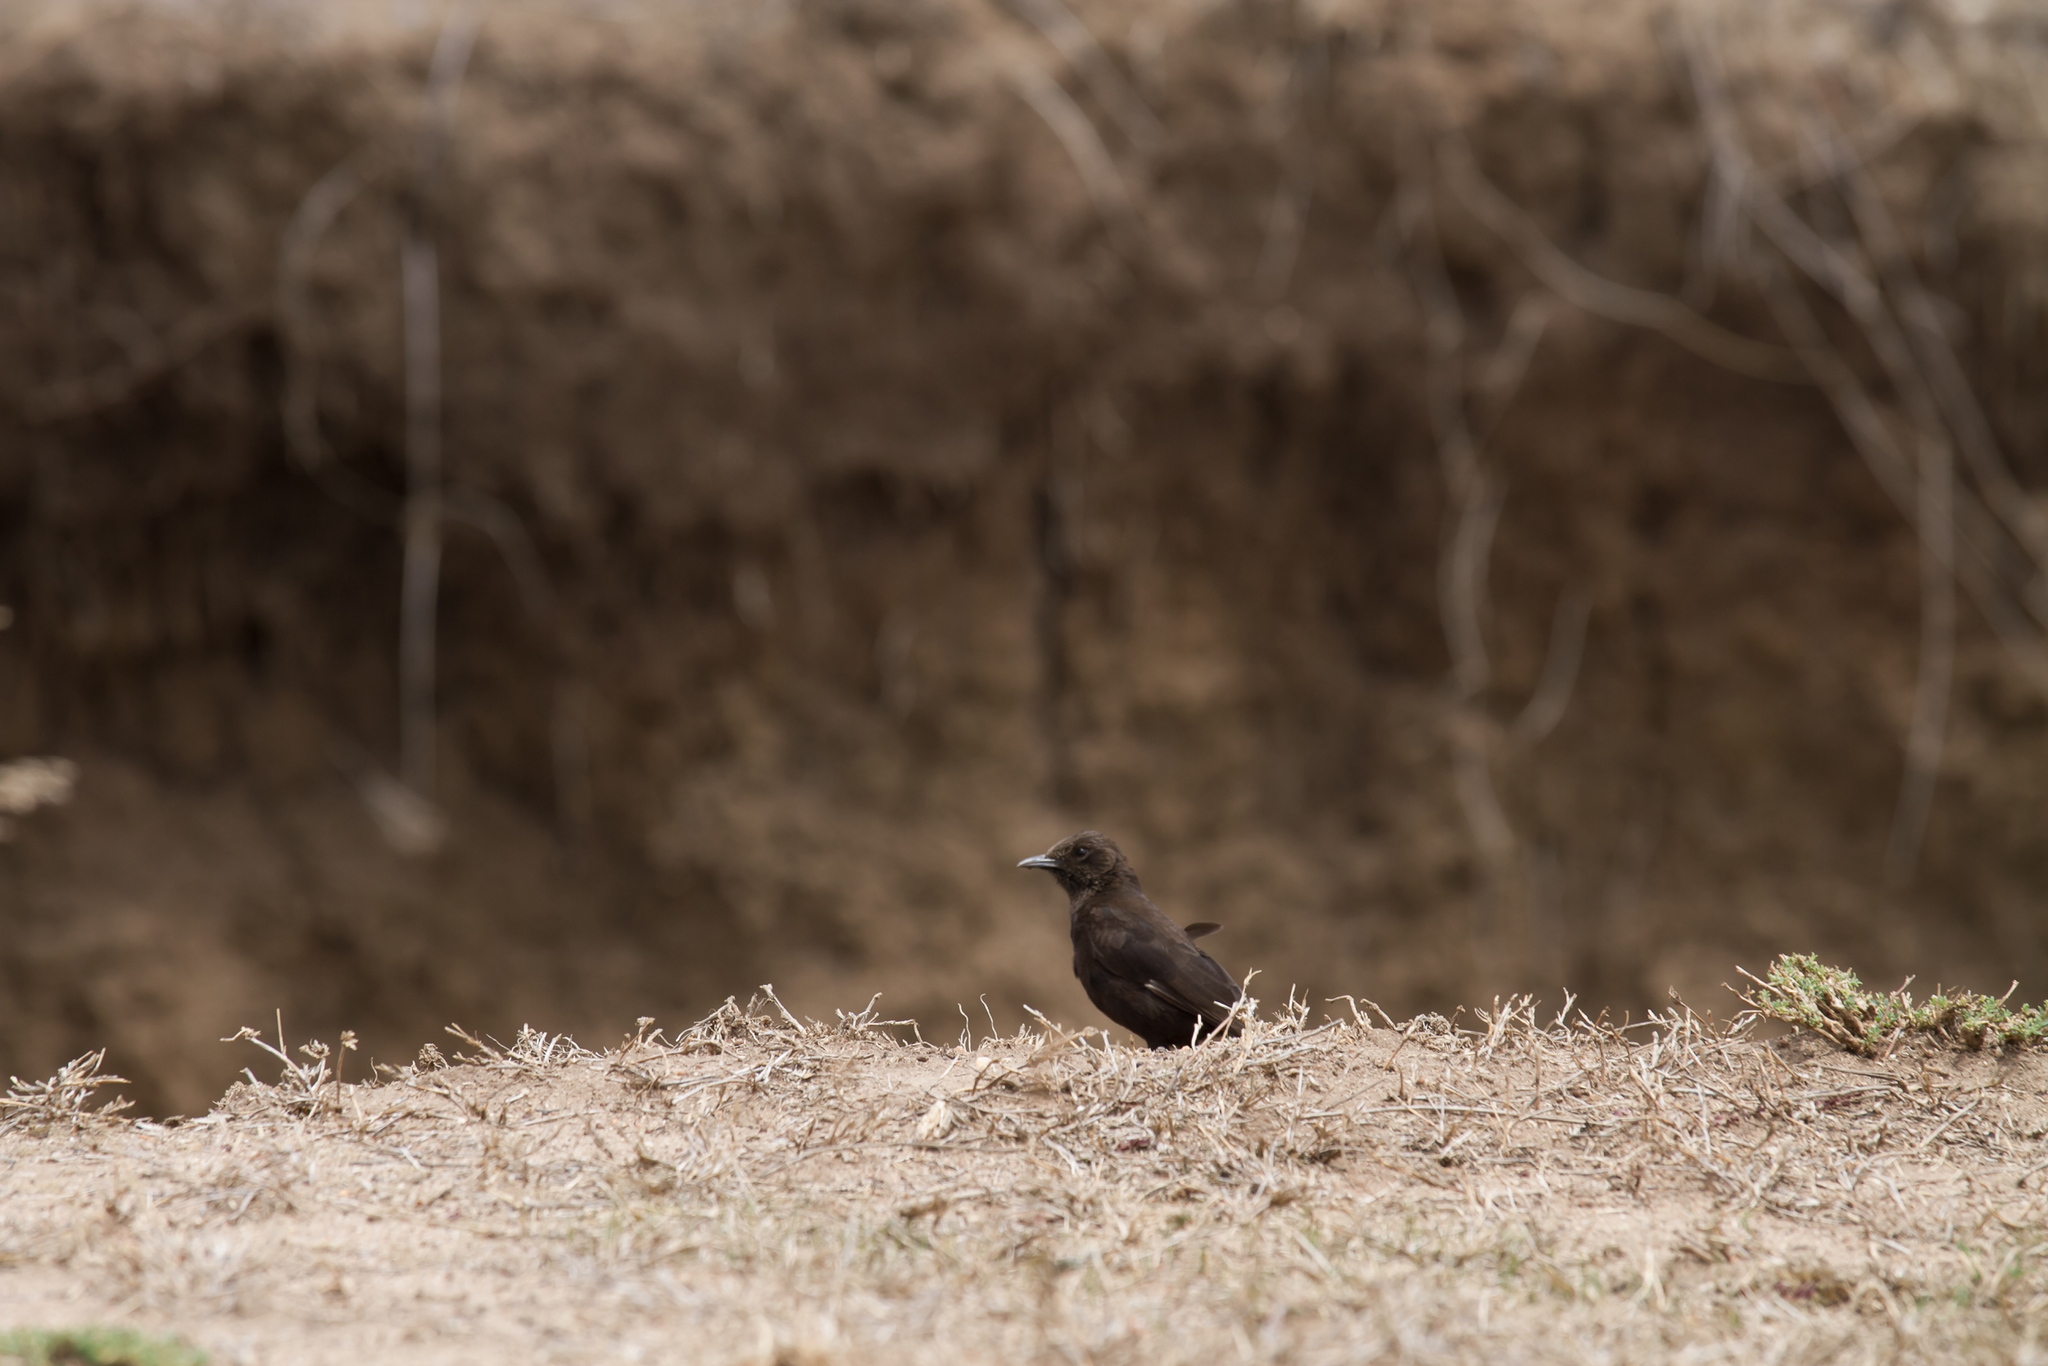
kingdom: Animalia
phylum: Chordata
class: Aves
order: Passeriformes
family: Muscicapidae
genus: Myrmecocichla
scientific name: Myrmecocichla aethiops
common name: Anteater chat
